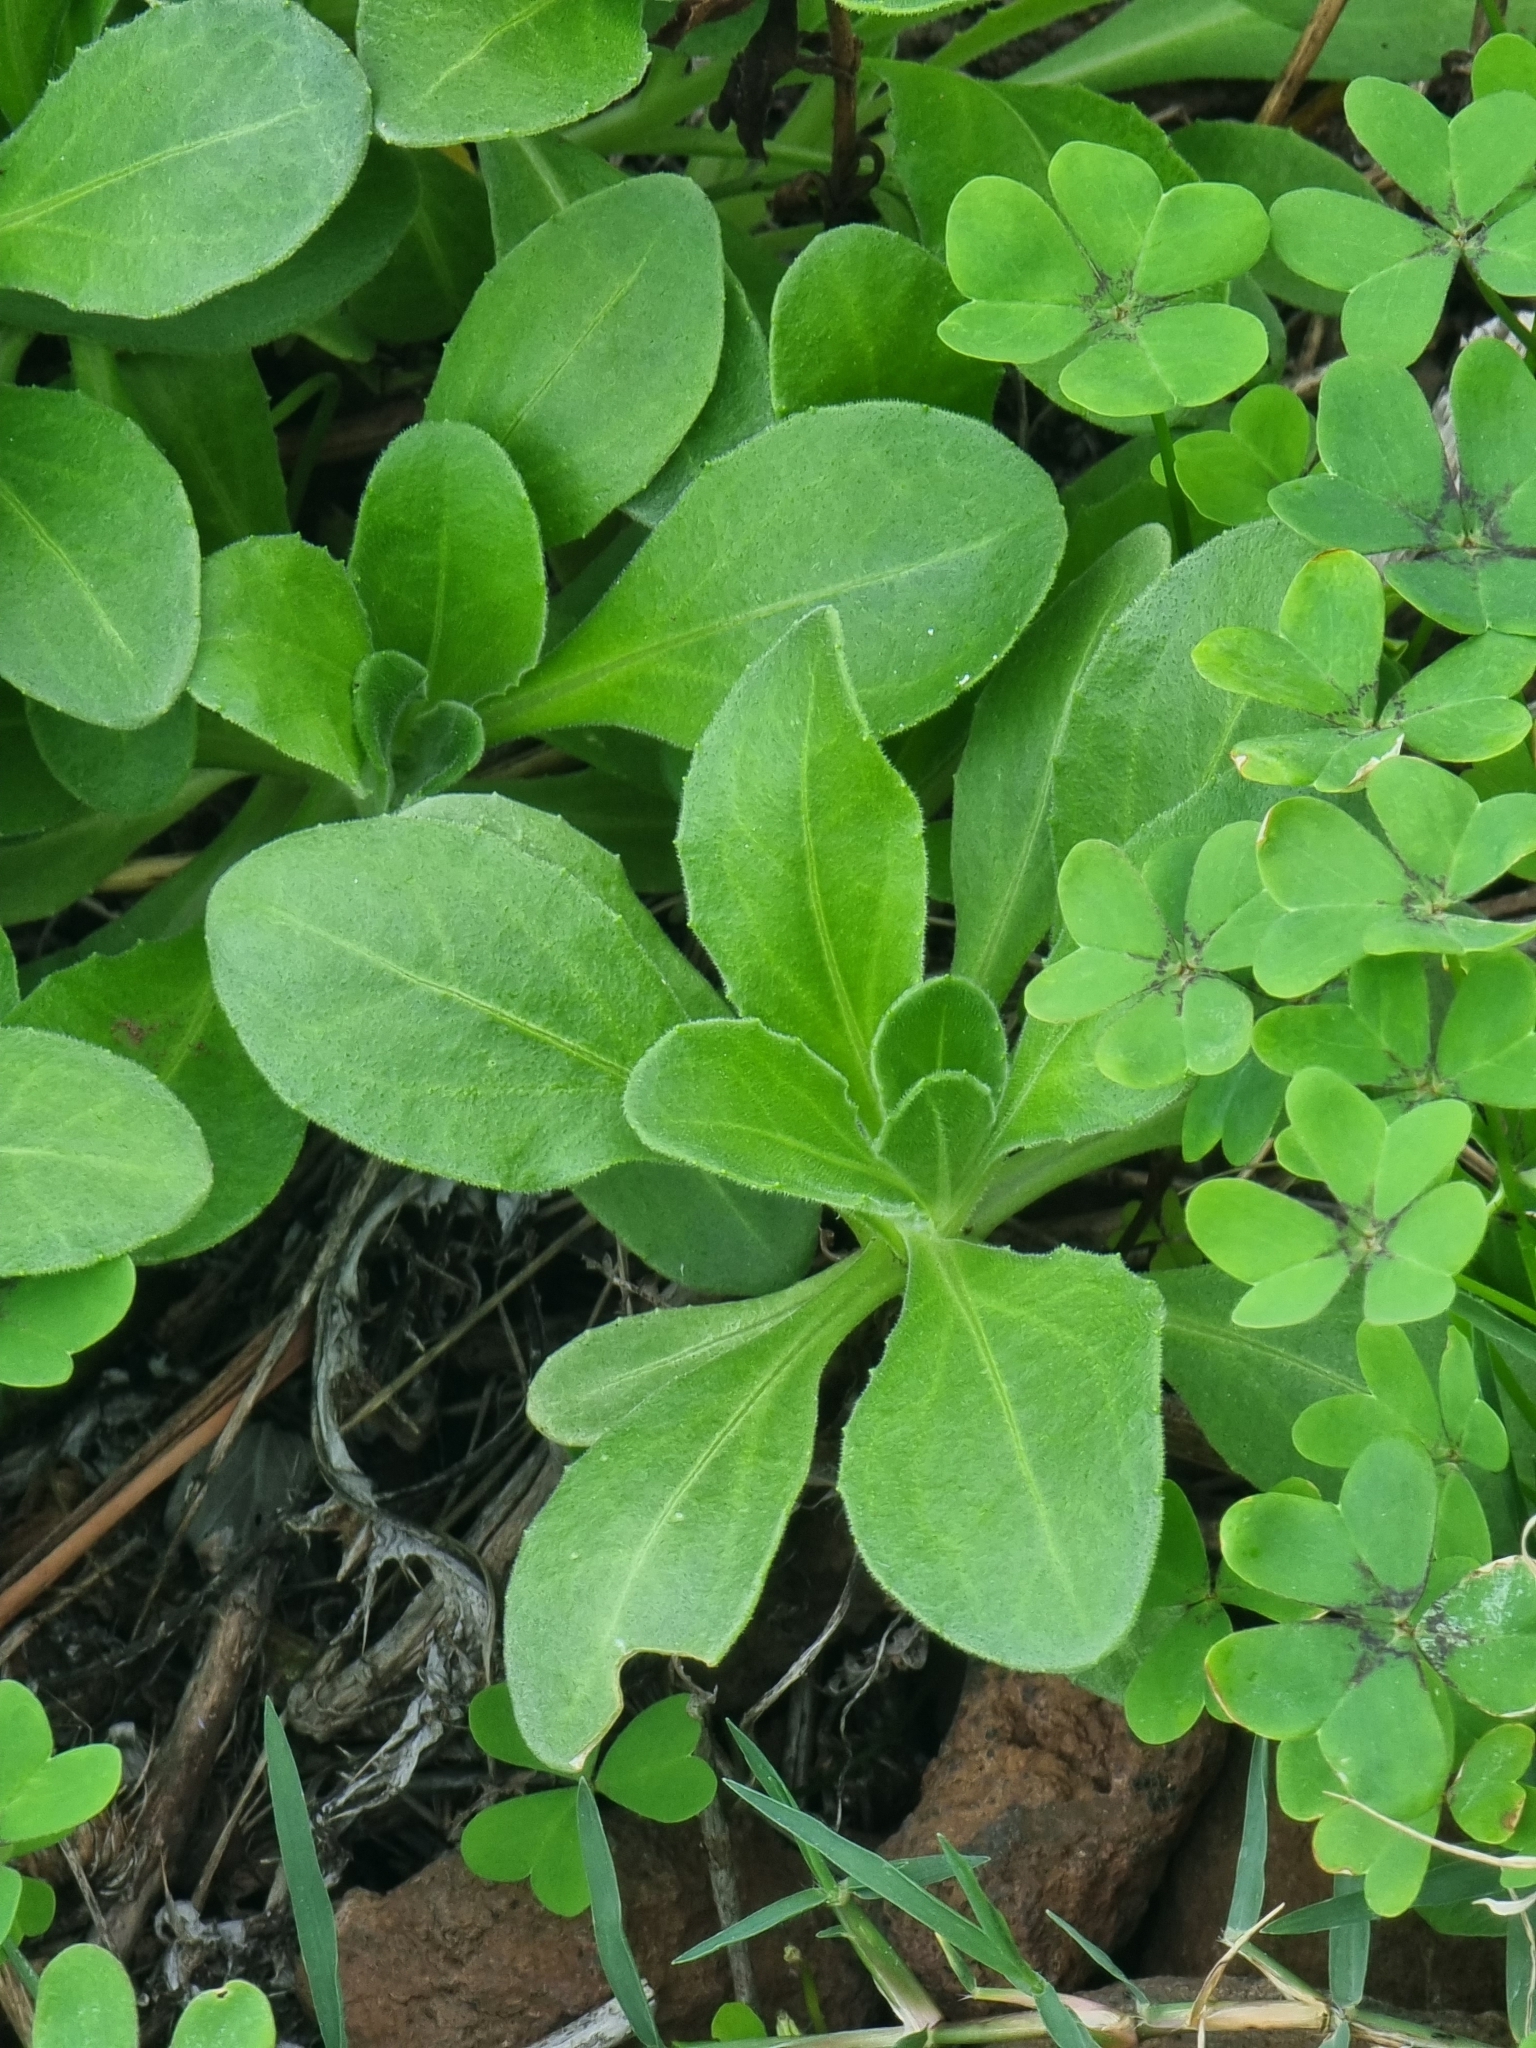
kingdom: Plantae
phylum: Tracheophyta
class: Magnoliopsida
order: Asterales
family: Asteraceae
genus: Calendula
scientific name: Calendula suffruticosa
